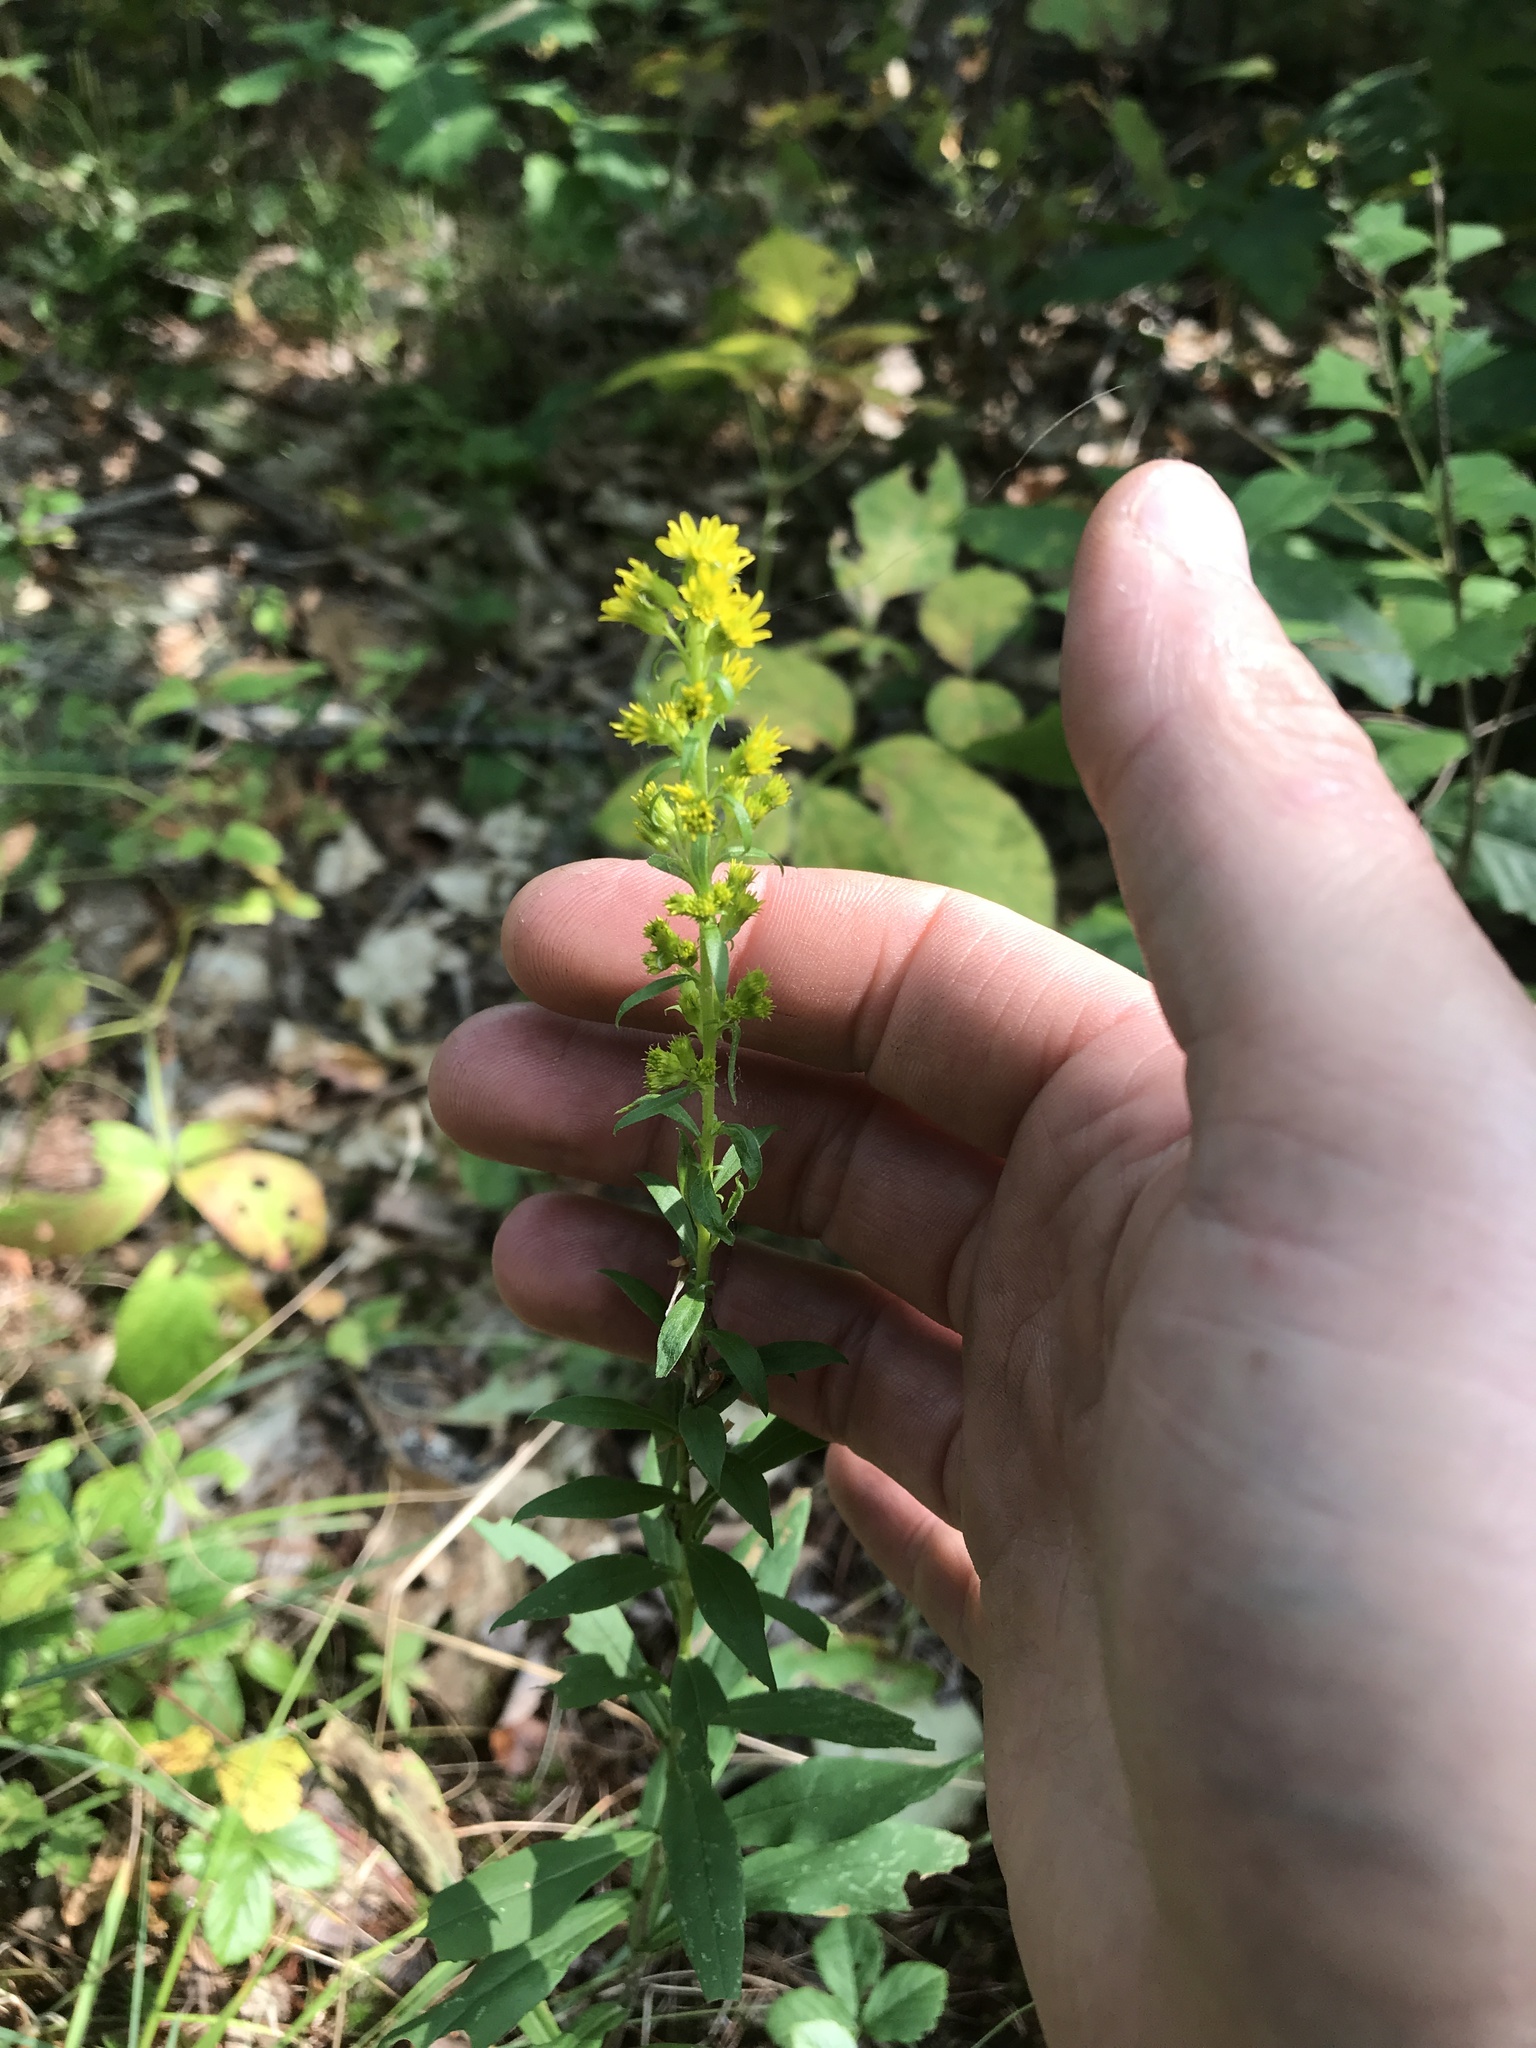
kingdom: Plantae
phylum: Tracheophyta
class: Magnoliopsida
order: Asterales
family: Asteraceae
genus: Solidago
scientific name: Solidago puberula
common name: Downy goldenrod
